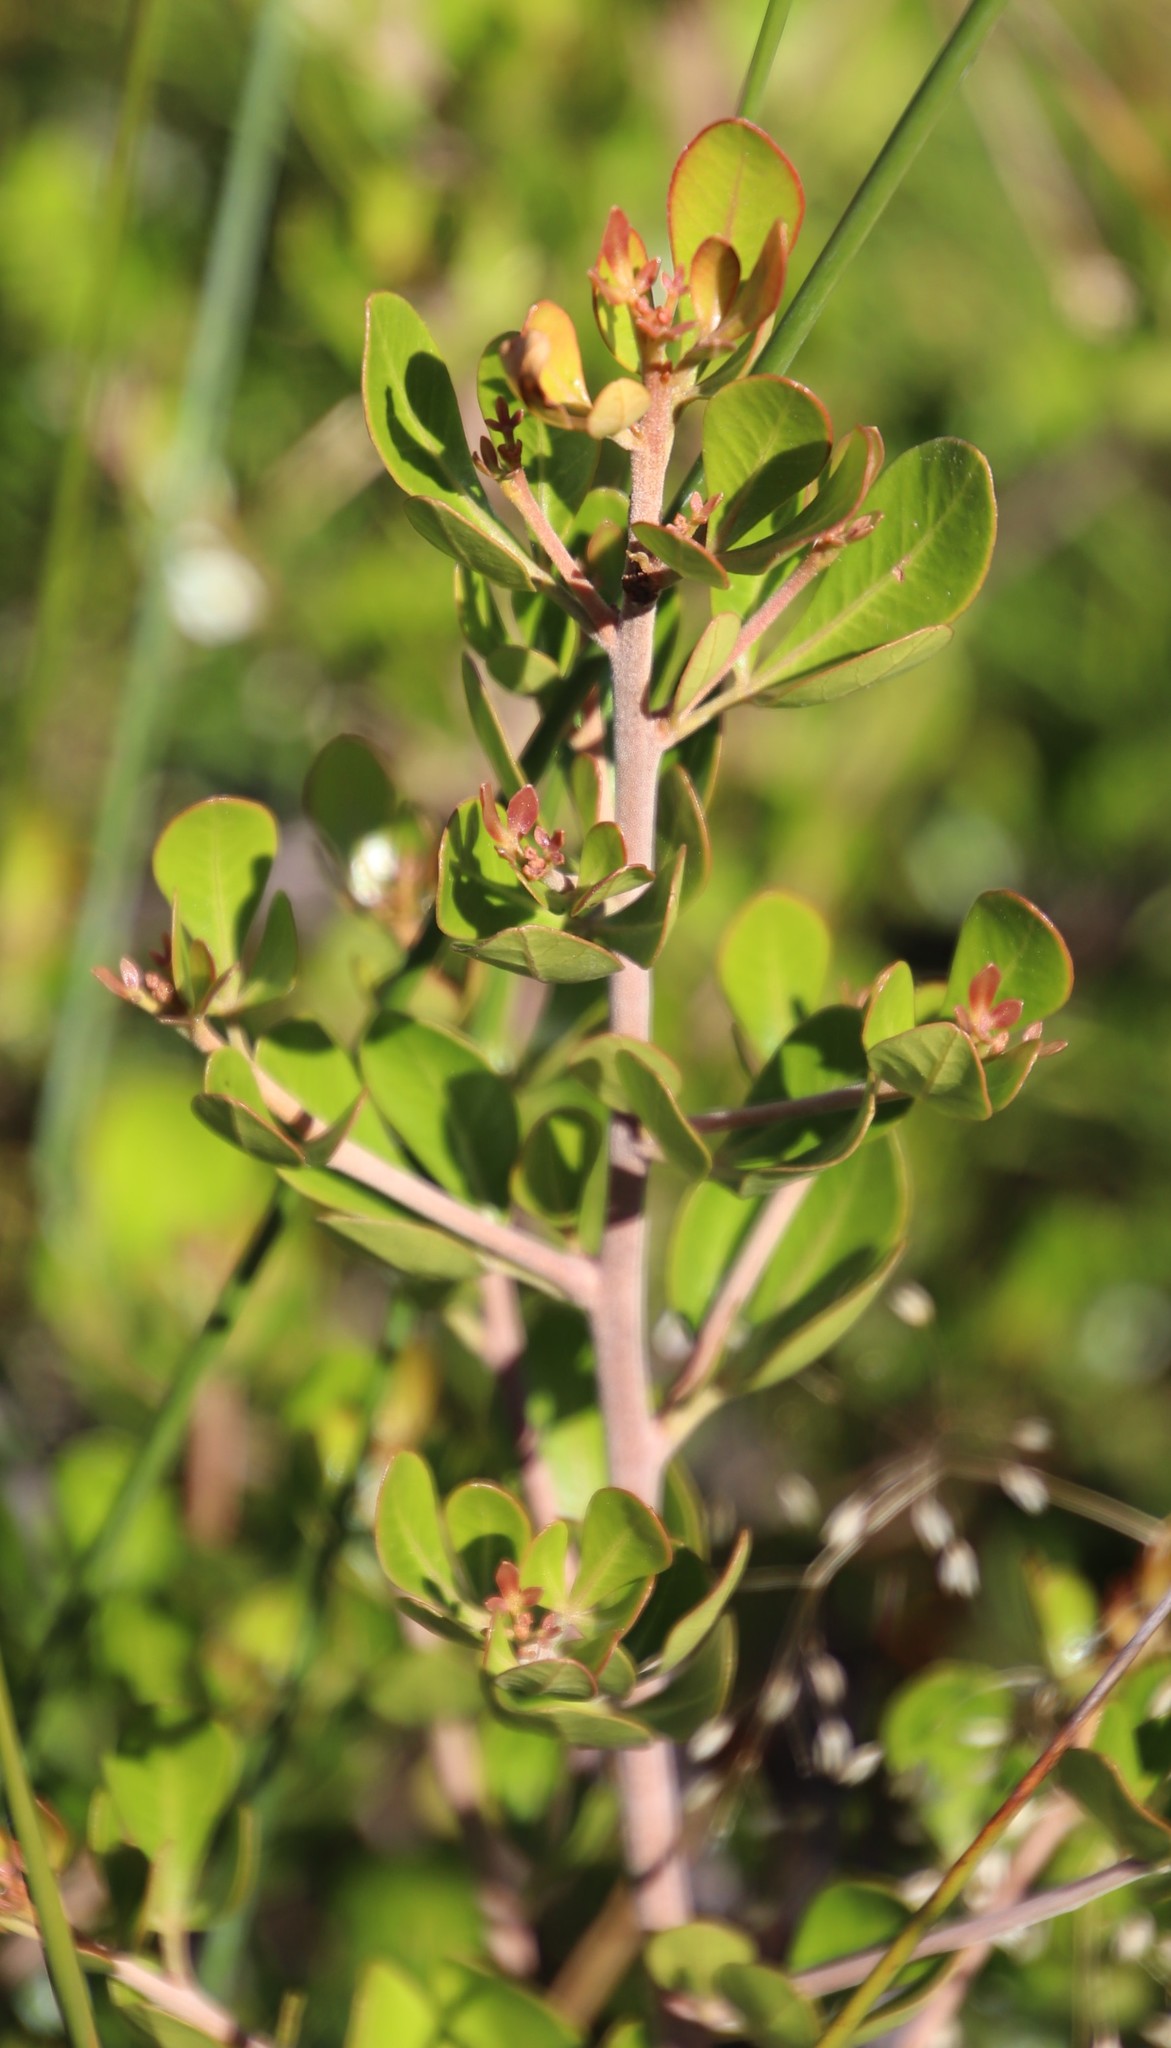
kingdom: Plantae
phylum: Tracheophyta
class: Magnoliopsida
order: Sapindales
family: Anacardiaceae
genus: Searsia
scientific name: Searsia lucida
